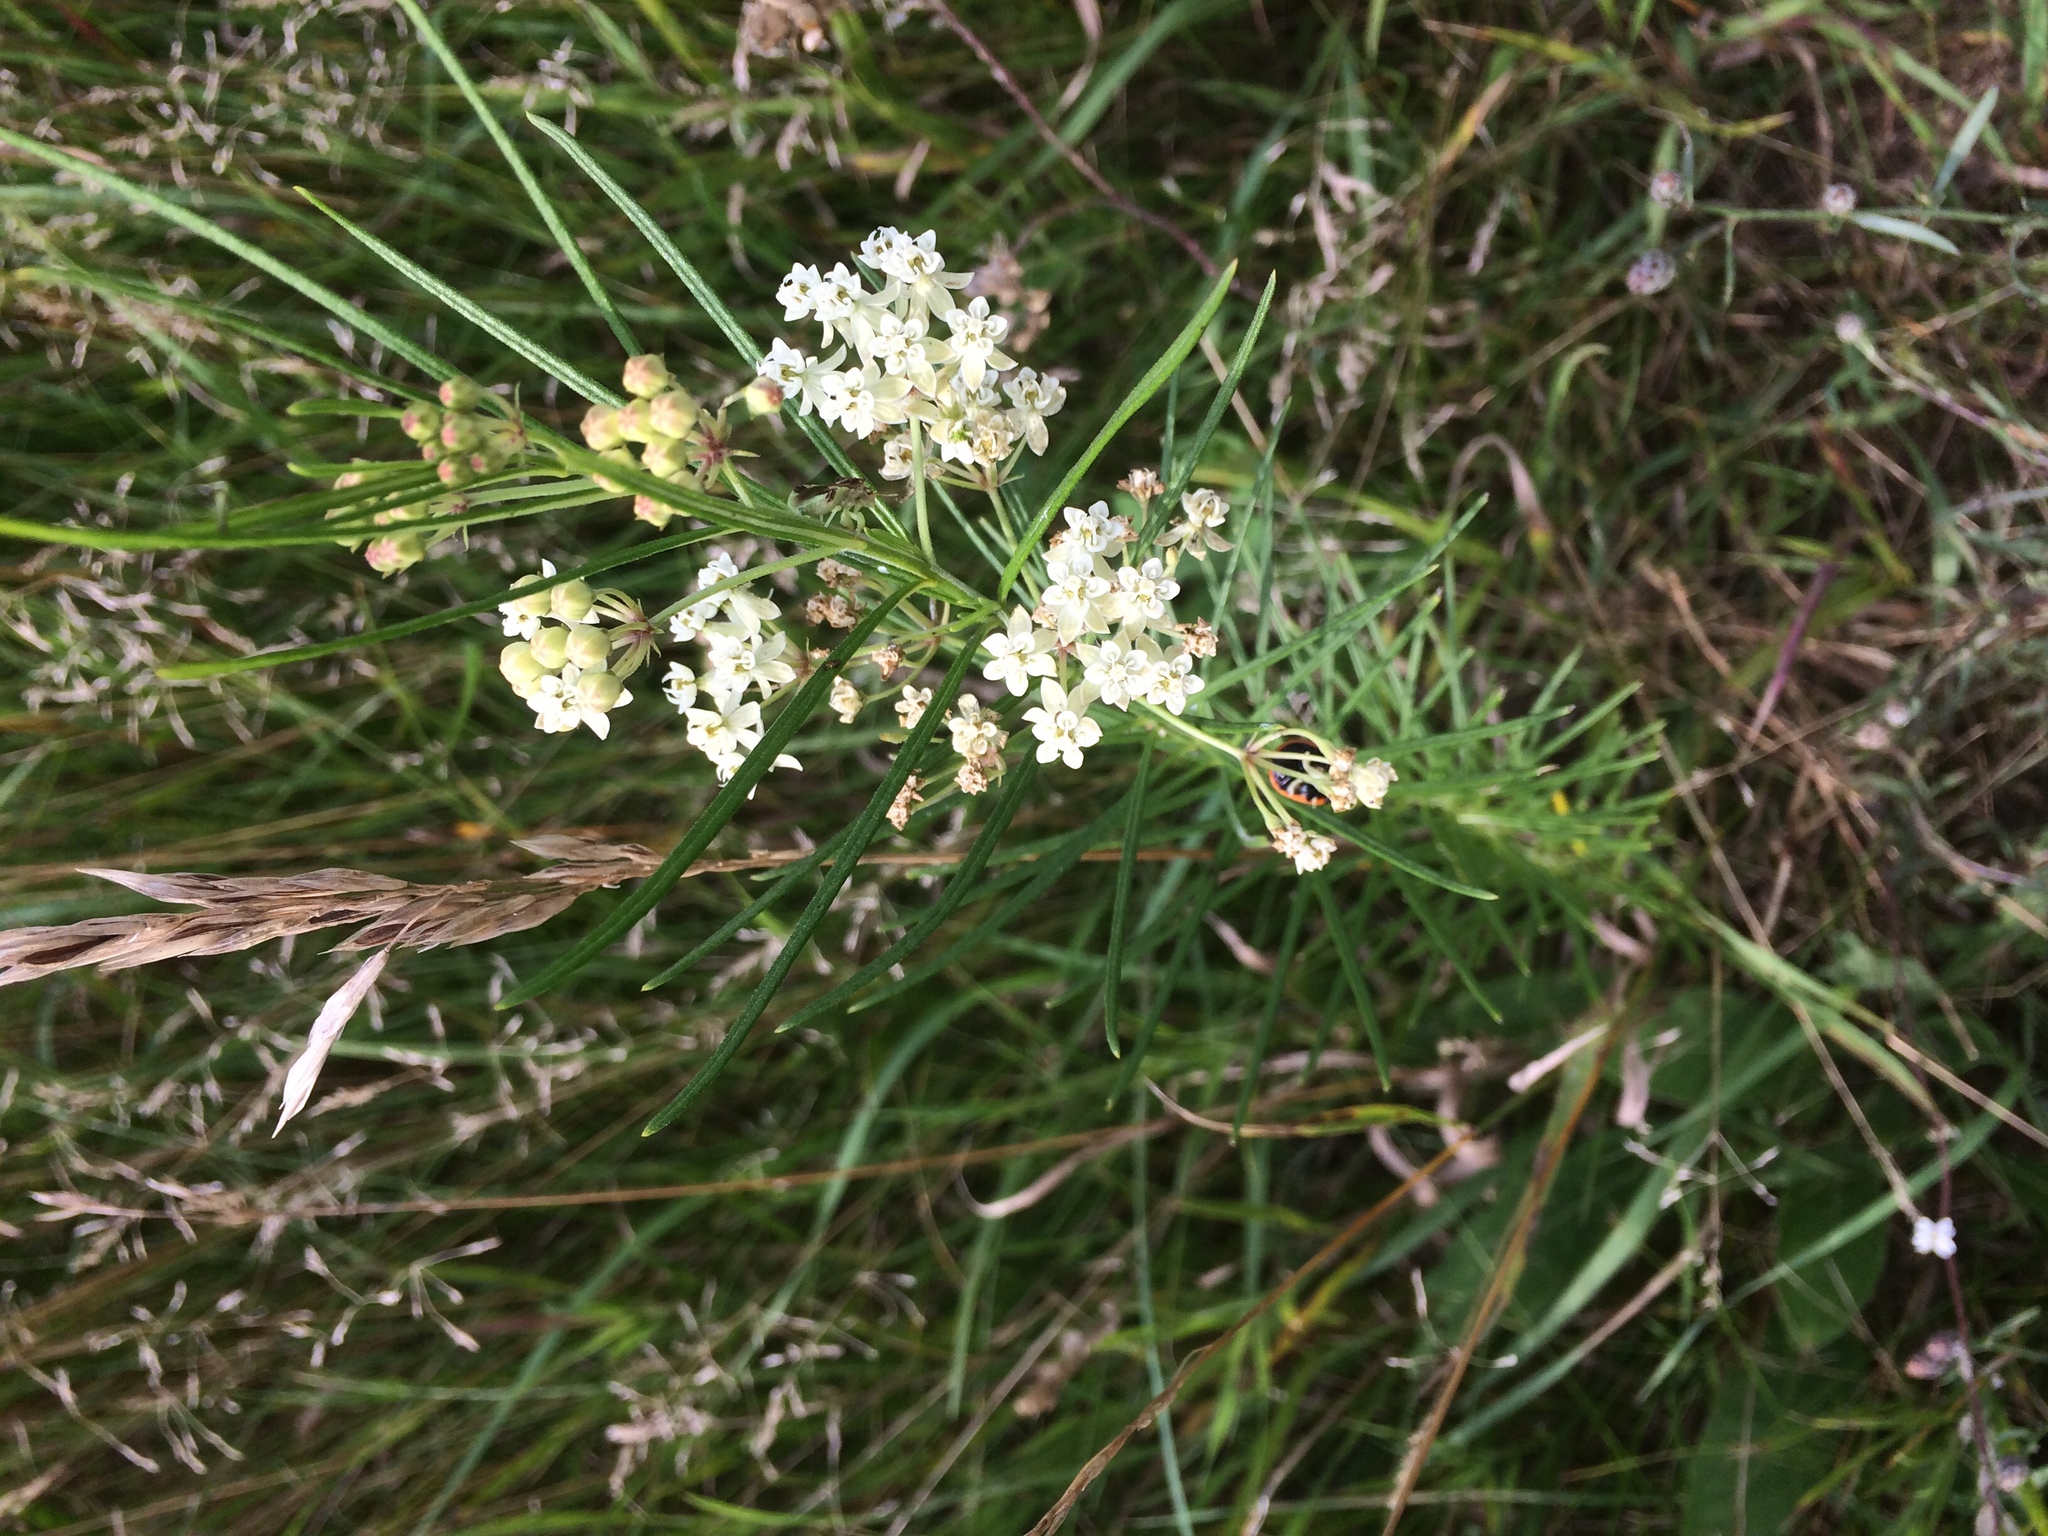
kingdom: Plantae
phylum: Tracheophyta
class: Magnoliopsida
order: Gentianales
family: Apocynaceae
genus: Asclepias
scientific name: Asclepias verticillata
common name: Eastern whorled milkweed
